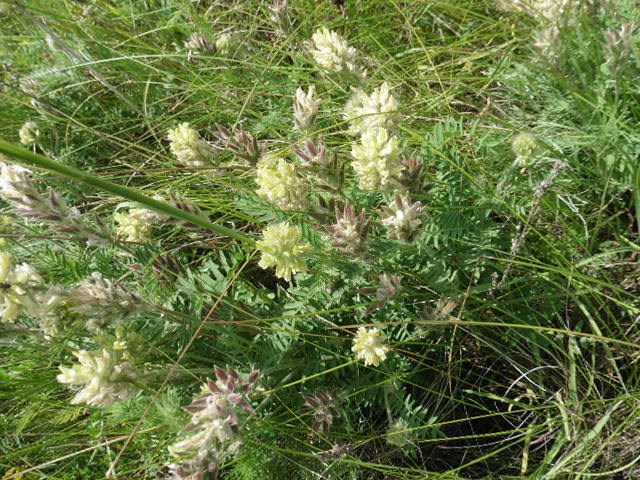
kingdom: Plantae
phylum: Tracheophyta
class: Magnoliopsida
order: Fabales
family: Fabaceae
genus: Oxytropis
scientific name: Oxytropis pilosa
